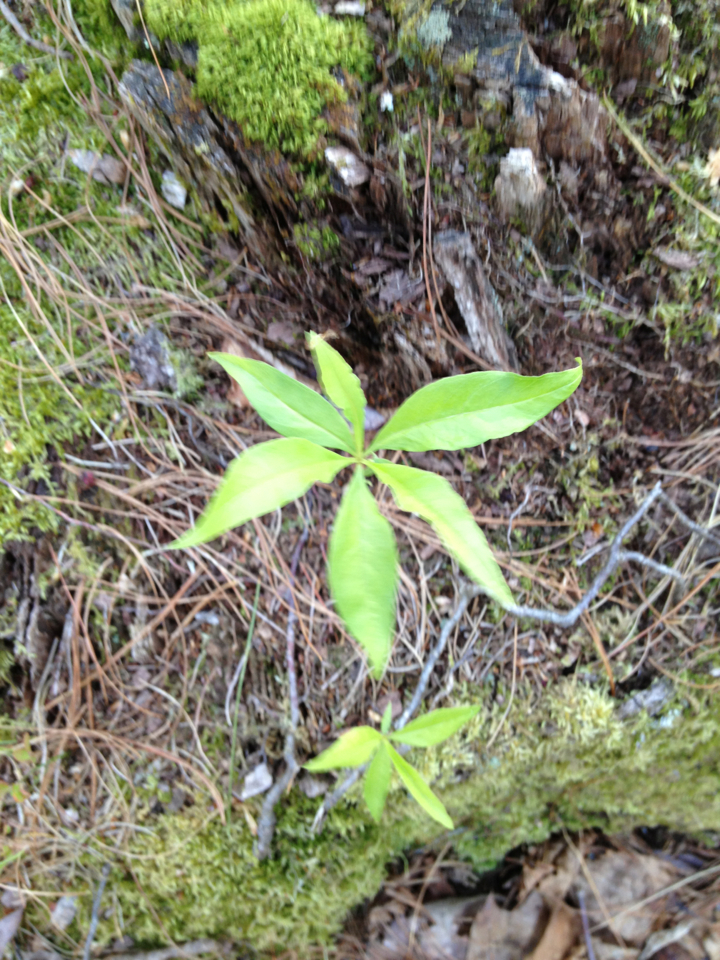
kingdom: Plantae
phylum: Tracheophyta
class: Magnoliopsida
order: Ericales
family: Primulaceae
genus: Lysimachia
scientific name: Lysimachia borealis
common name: American starflower
